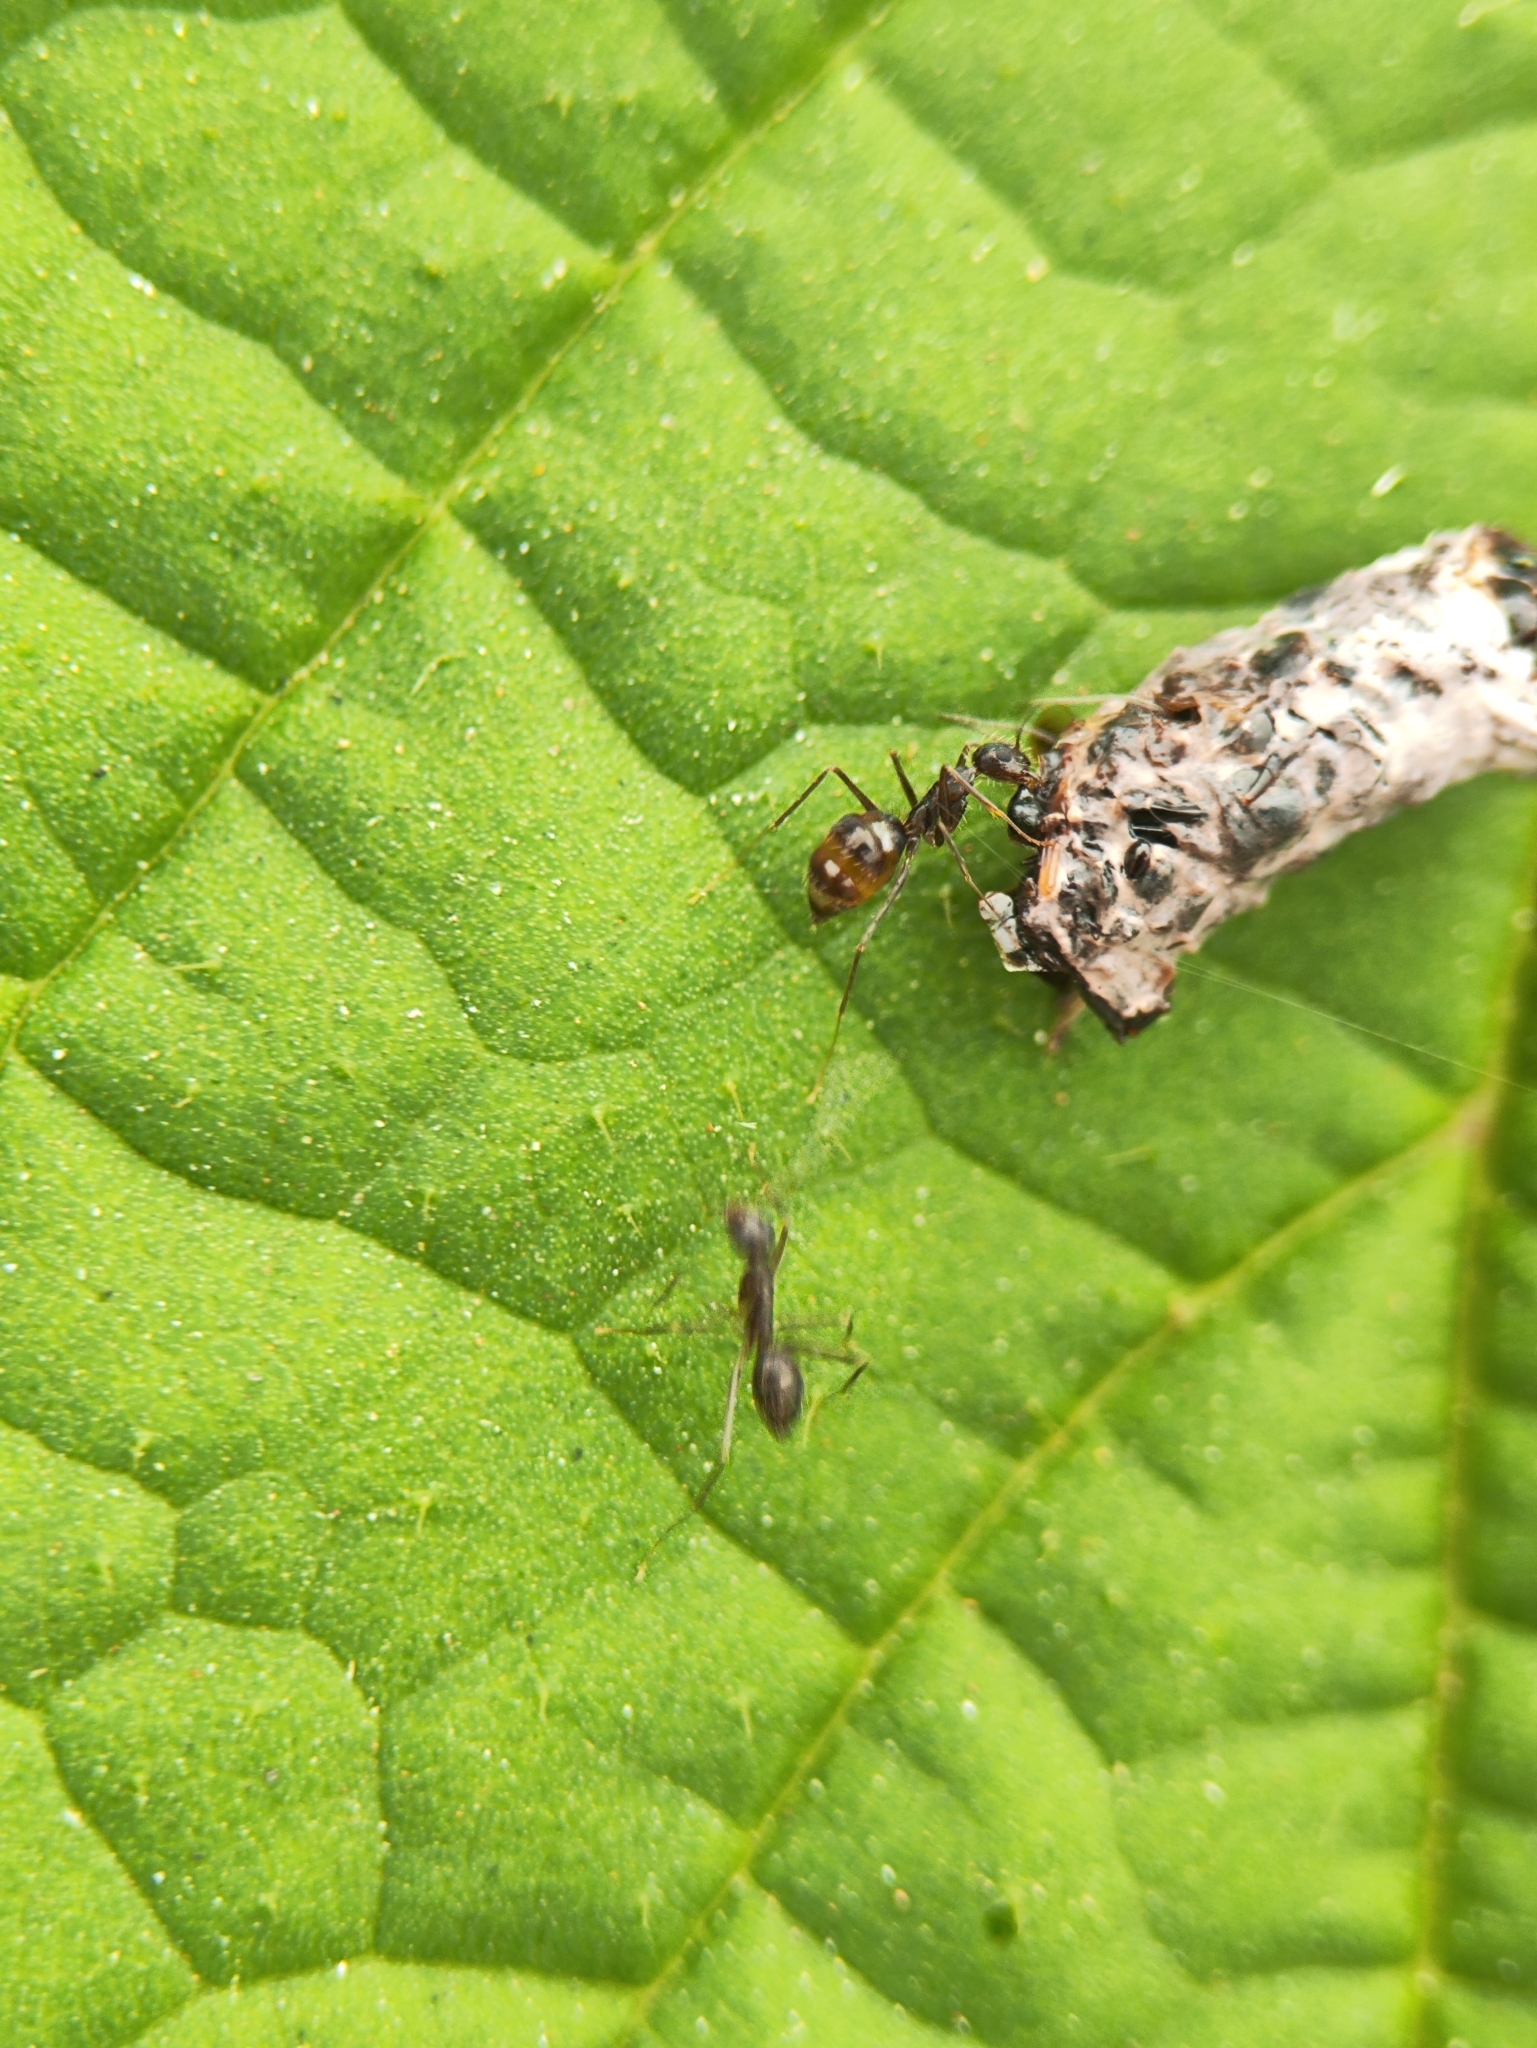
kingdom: Animalia
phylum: Arthropoda
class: Insecta
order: Hymenoptera
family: Formicidae
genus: Paratrechina
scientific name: Paratrechina longicornis
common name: Longhorned crazy ant
